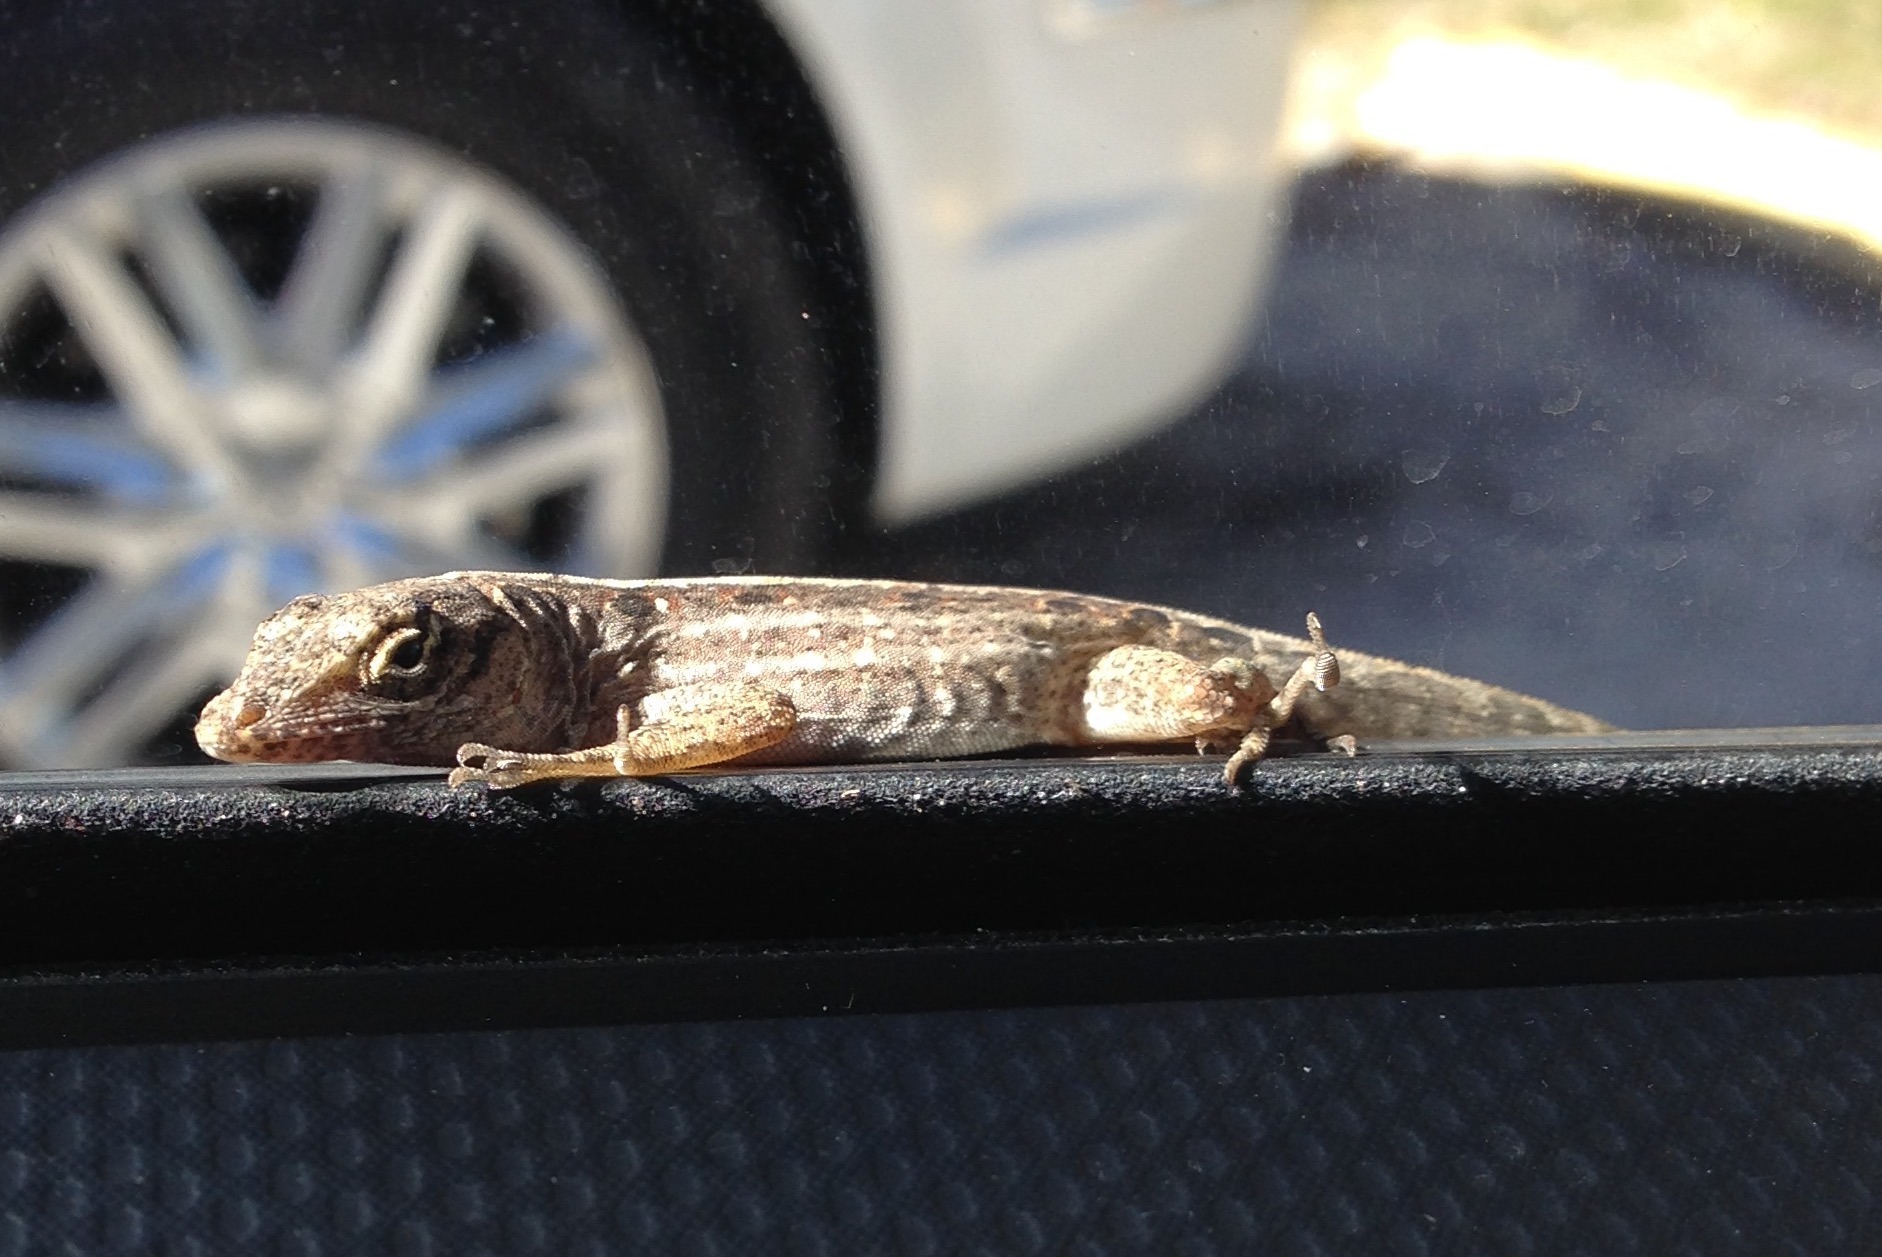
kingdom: Animalia
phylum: Chordata
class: Squamata
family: Dactyloidae
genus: Anolis
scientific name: Anolis sagrei
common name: Brown anole
